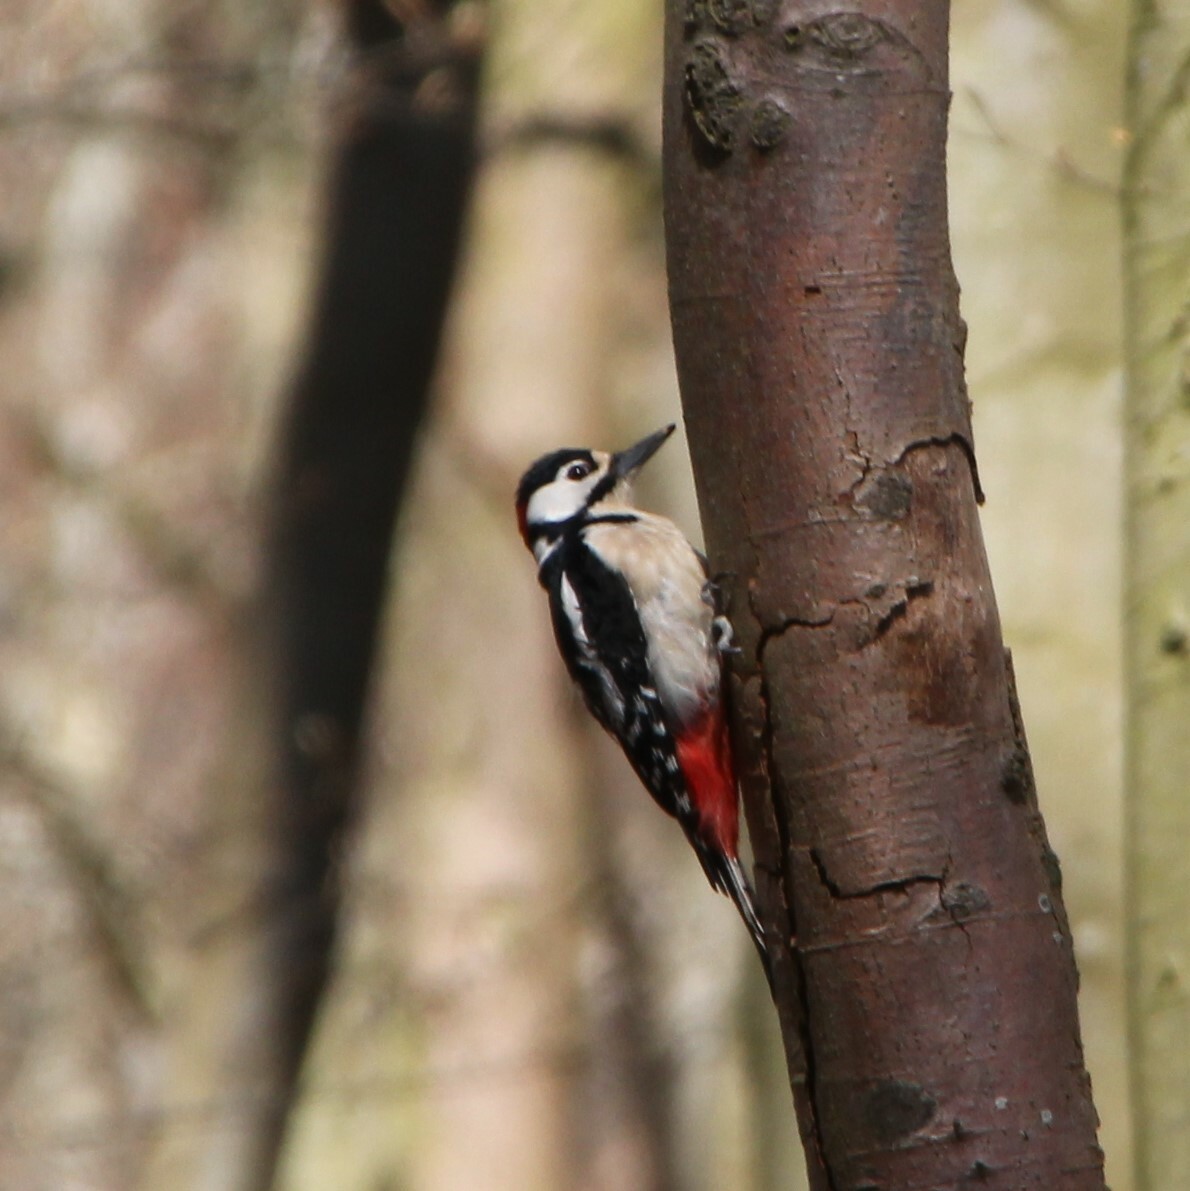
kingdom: Animalia
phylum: Chordata
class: Aves
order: Piciformes
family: Picidae
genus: Dendrocopos
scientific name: Dendrocopos major
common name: Great spotted woodpecker
